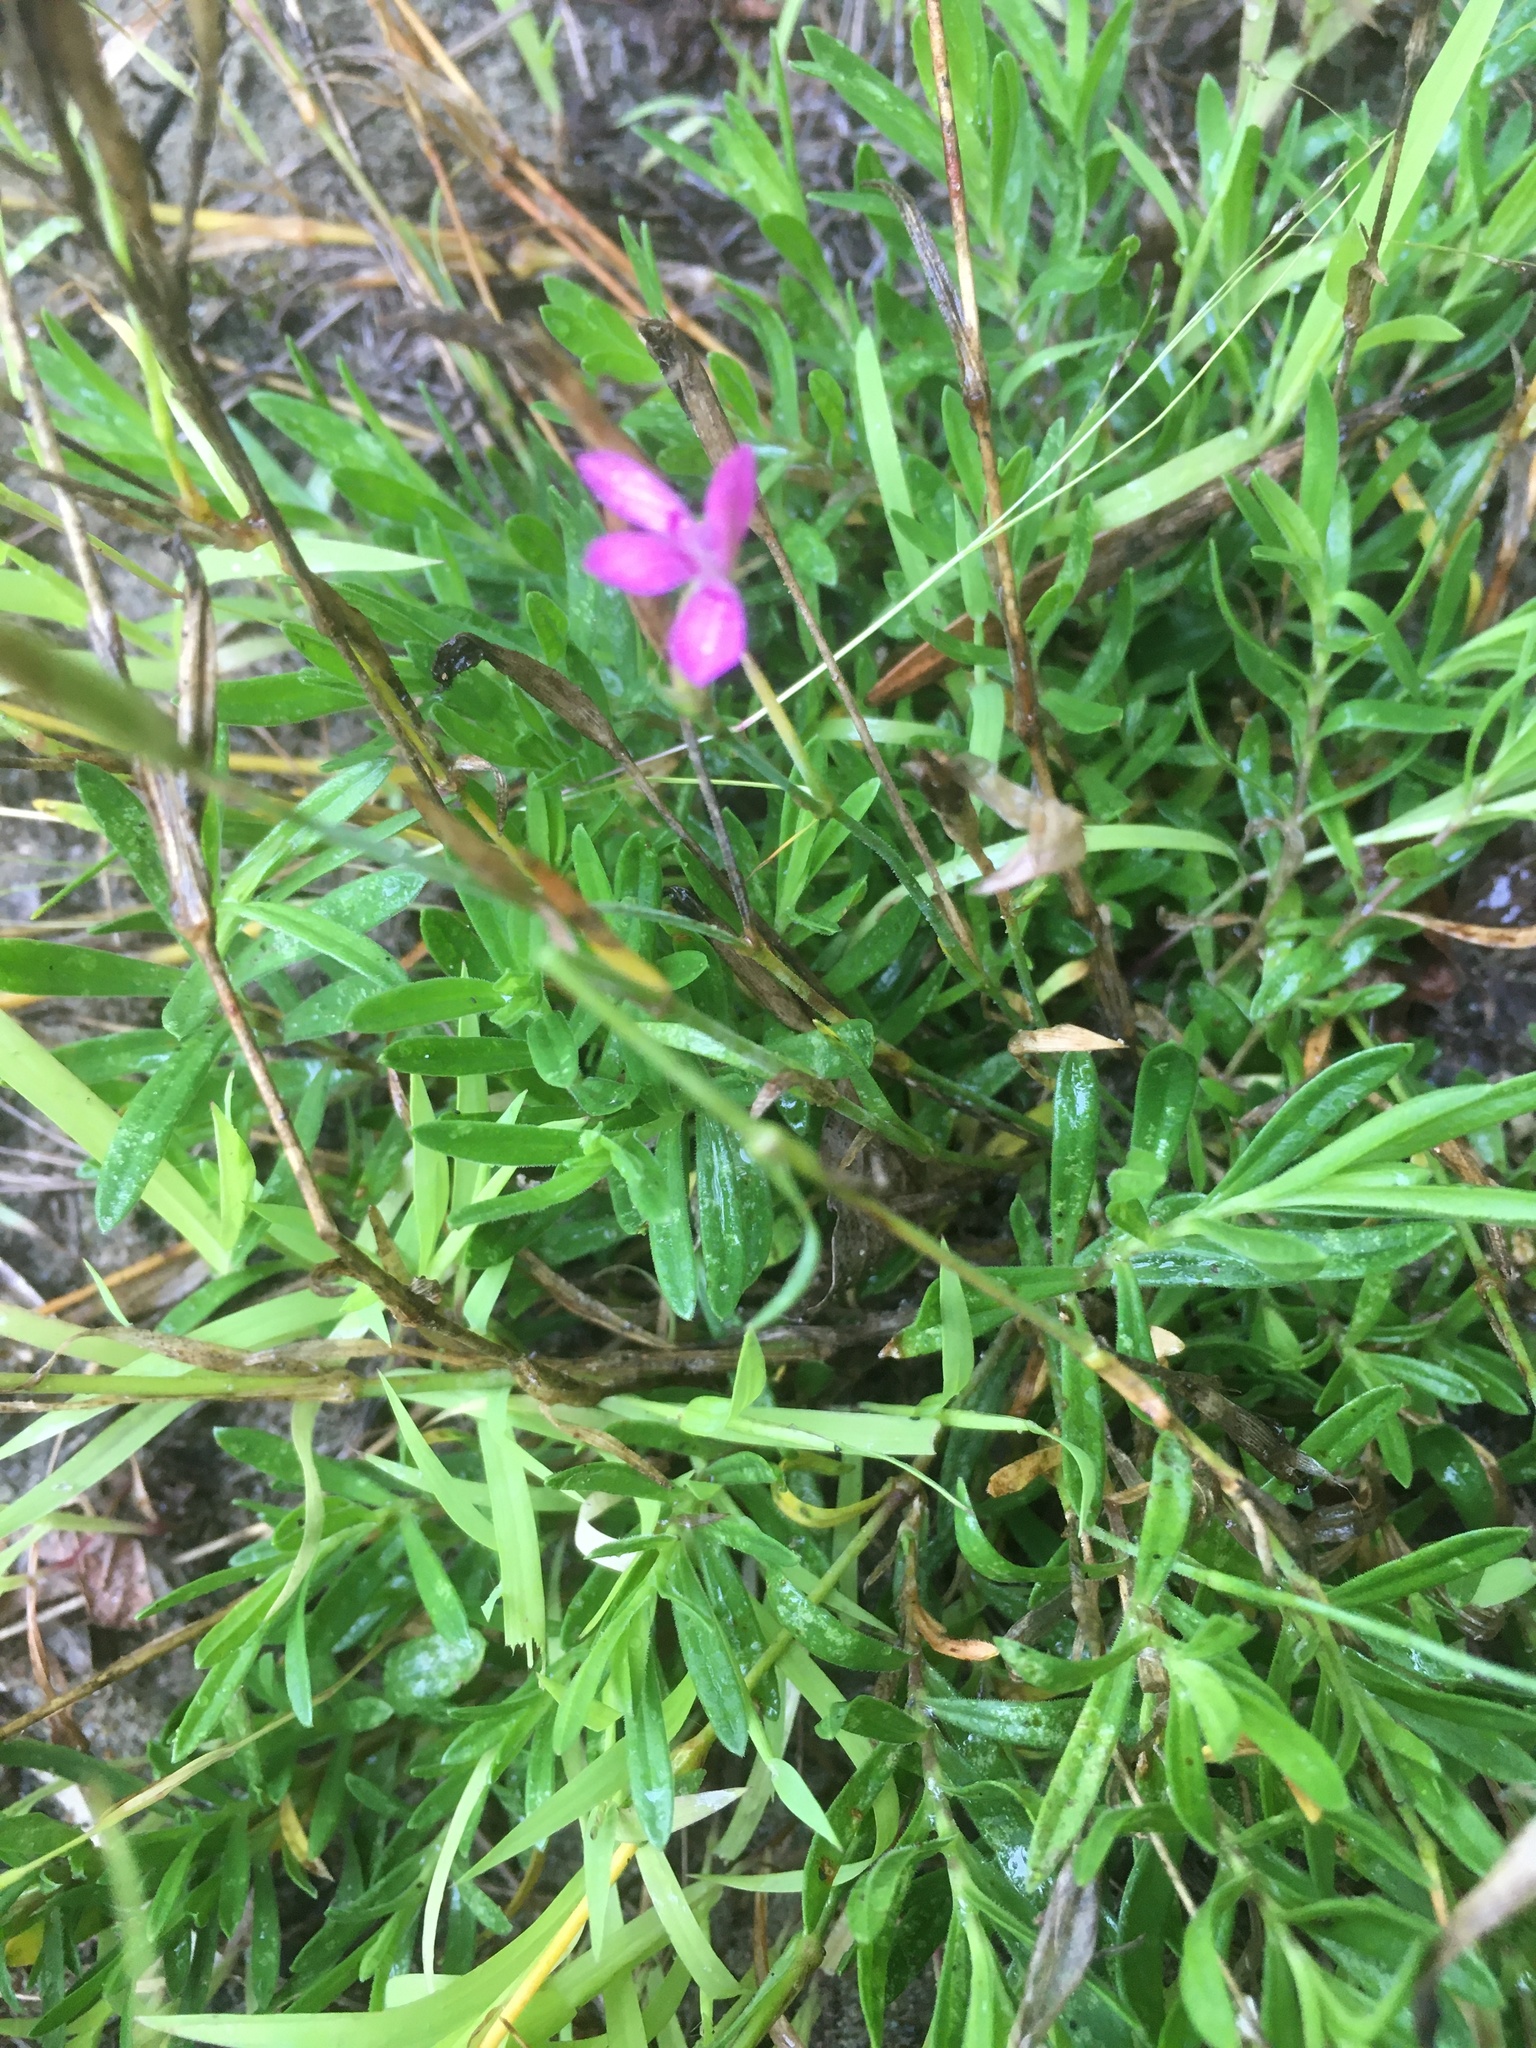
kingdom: Plantae
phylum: Tracheophyta
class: Magnoliopsida
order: Caryophyllales
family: Caryophyllaceae
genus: Dianthus
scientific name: Dianthus deltoides
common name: Maiden pink
